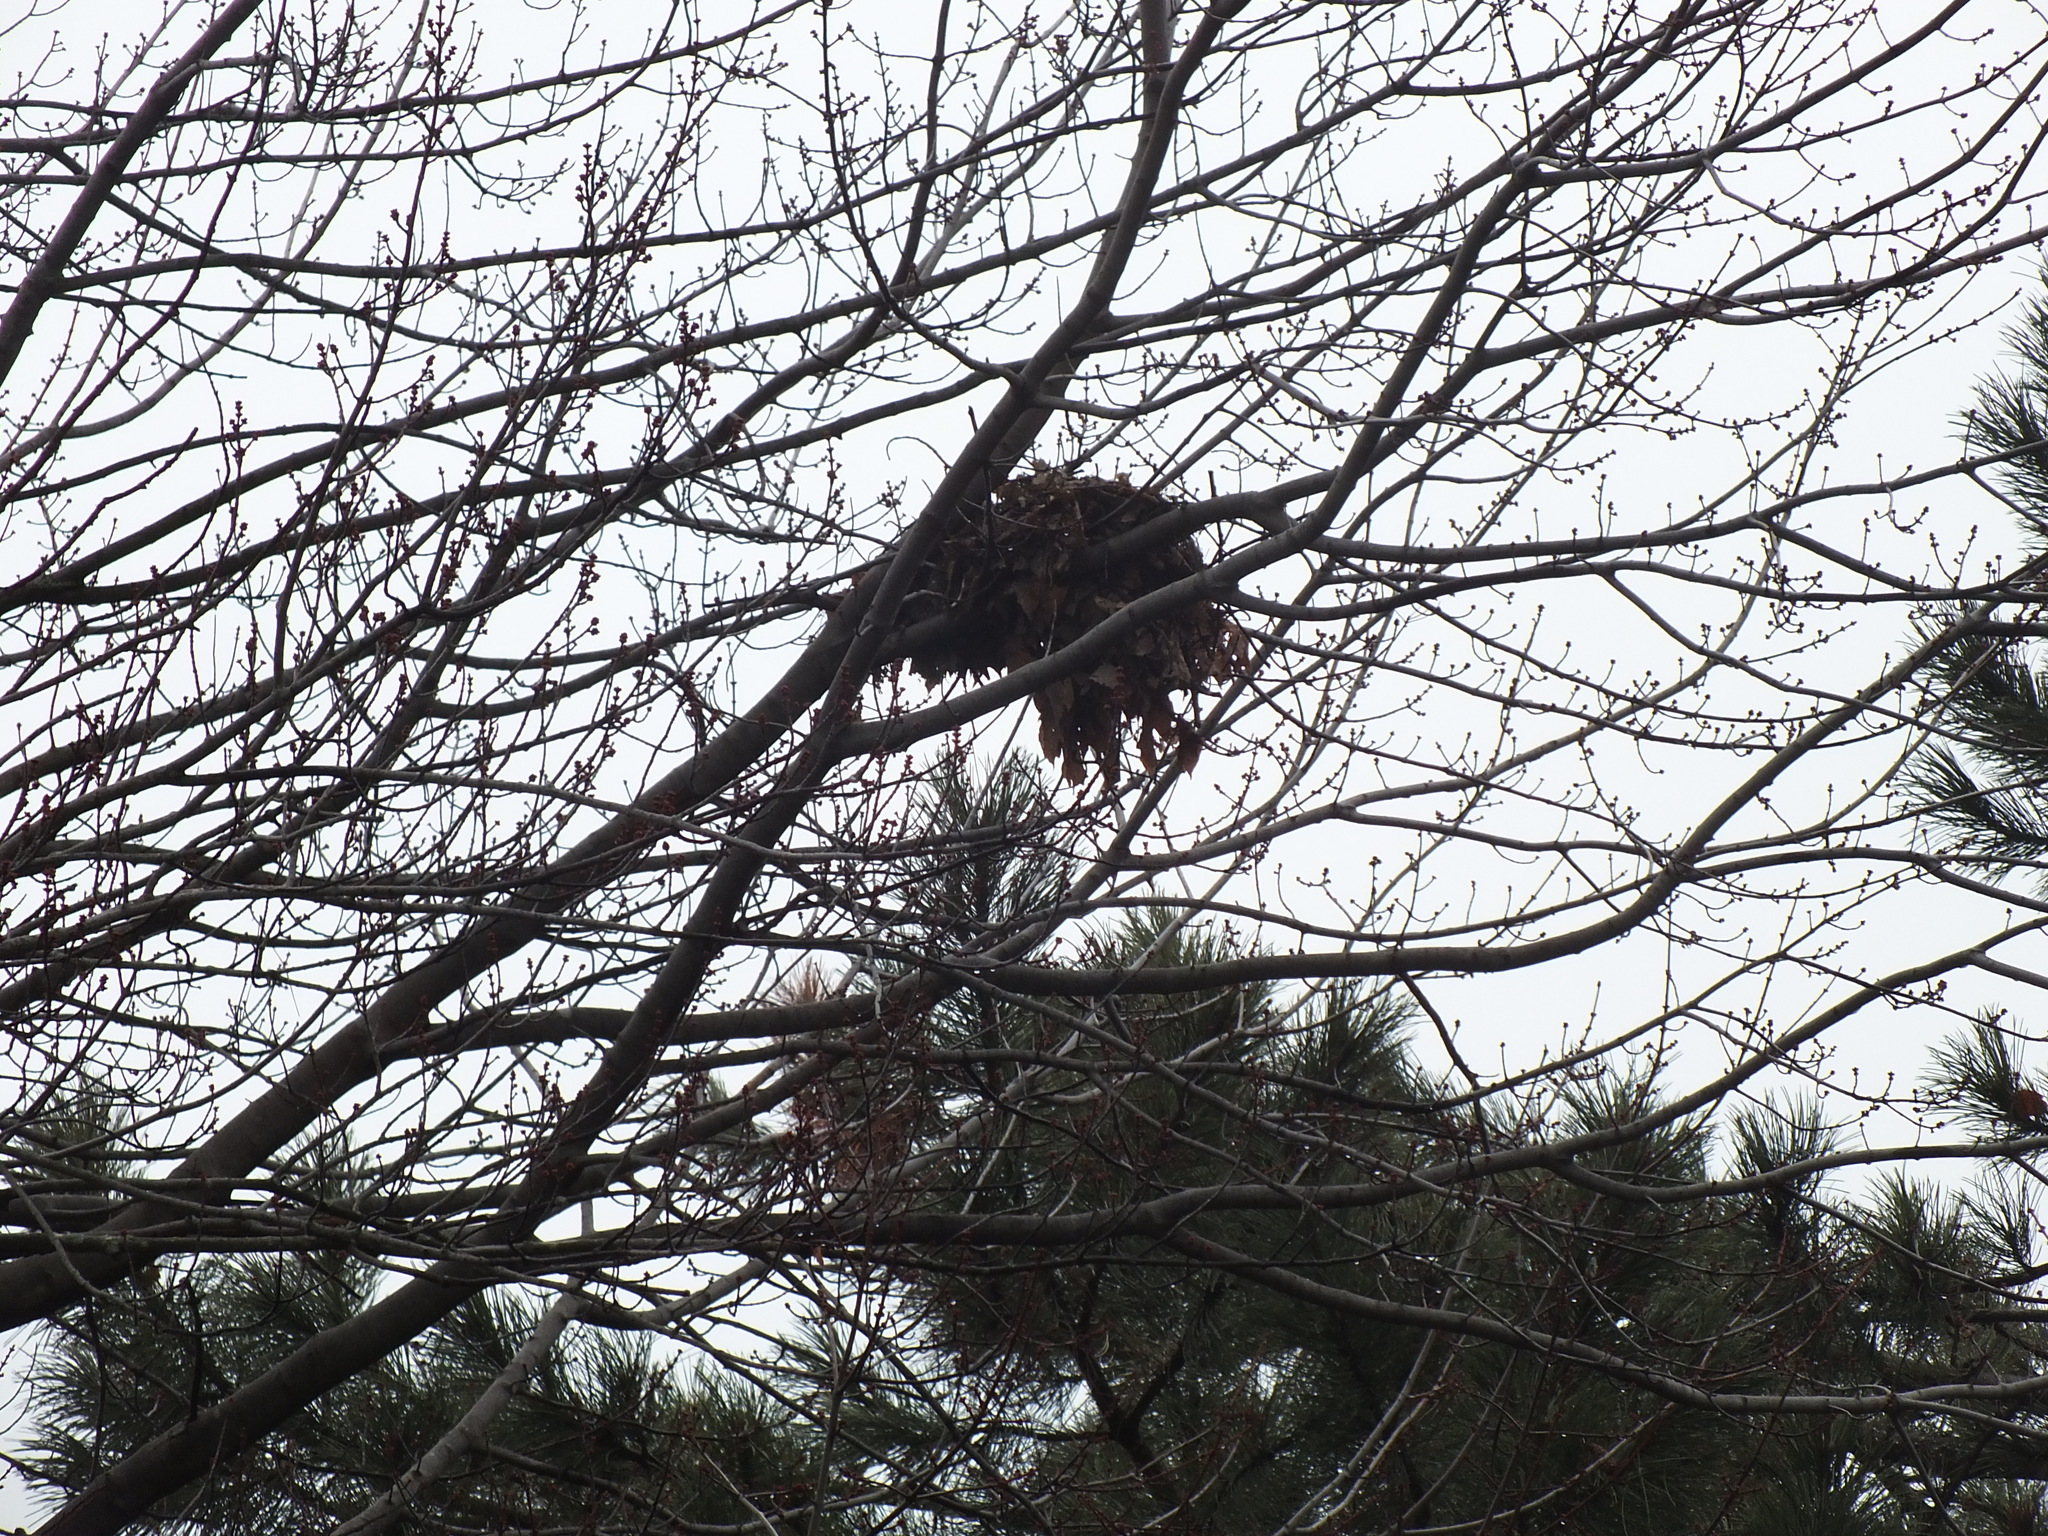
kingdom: Animalia
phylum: Chordata
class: Mammalia
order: Rodentia
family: Sciuridae
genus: Sciurus
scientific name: Sciurus carolinensis
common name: Eastern gray squirrel
